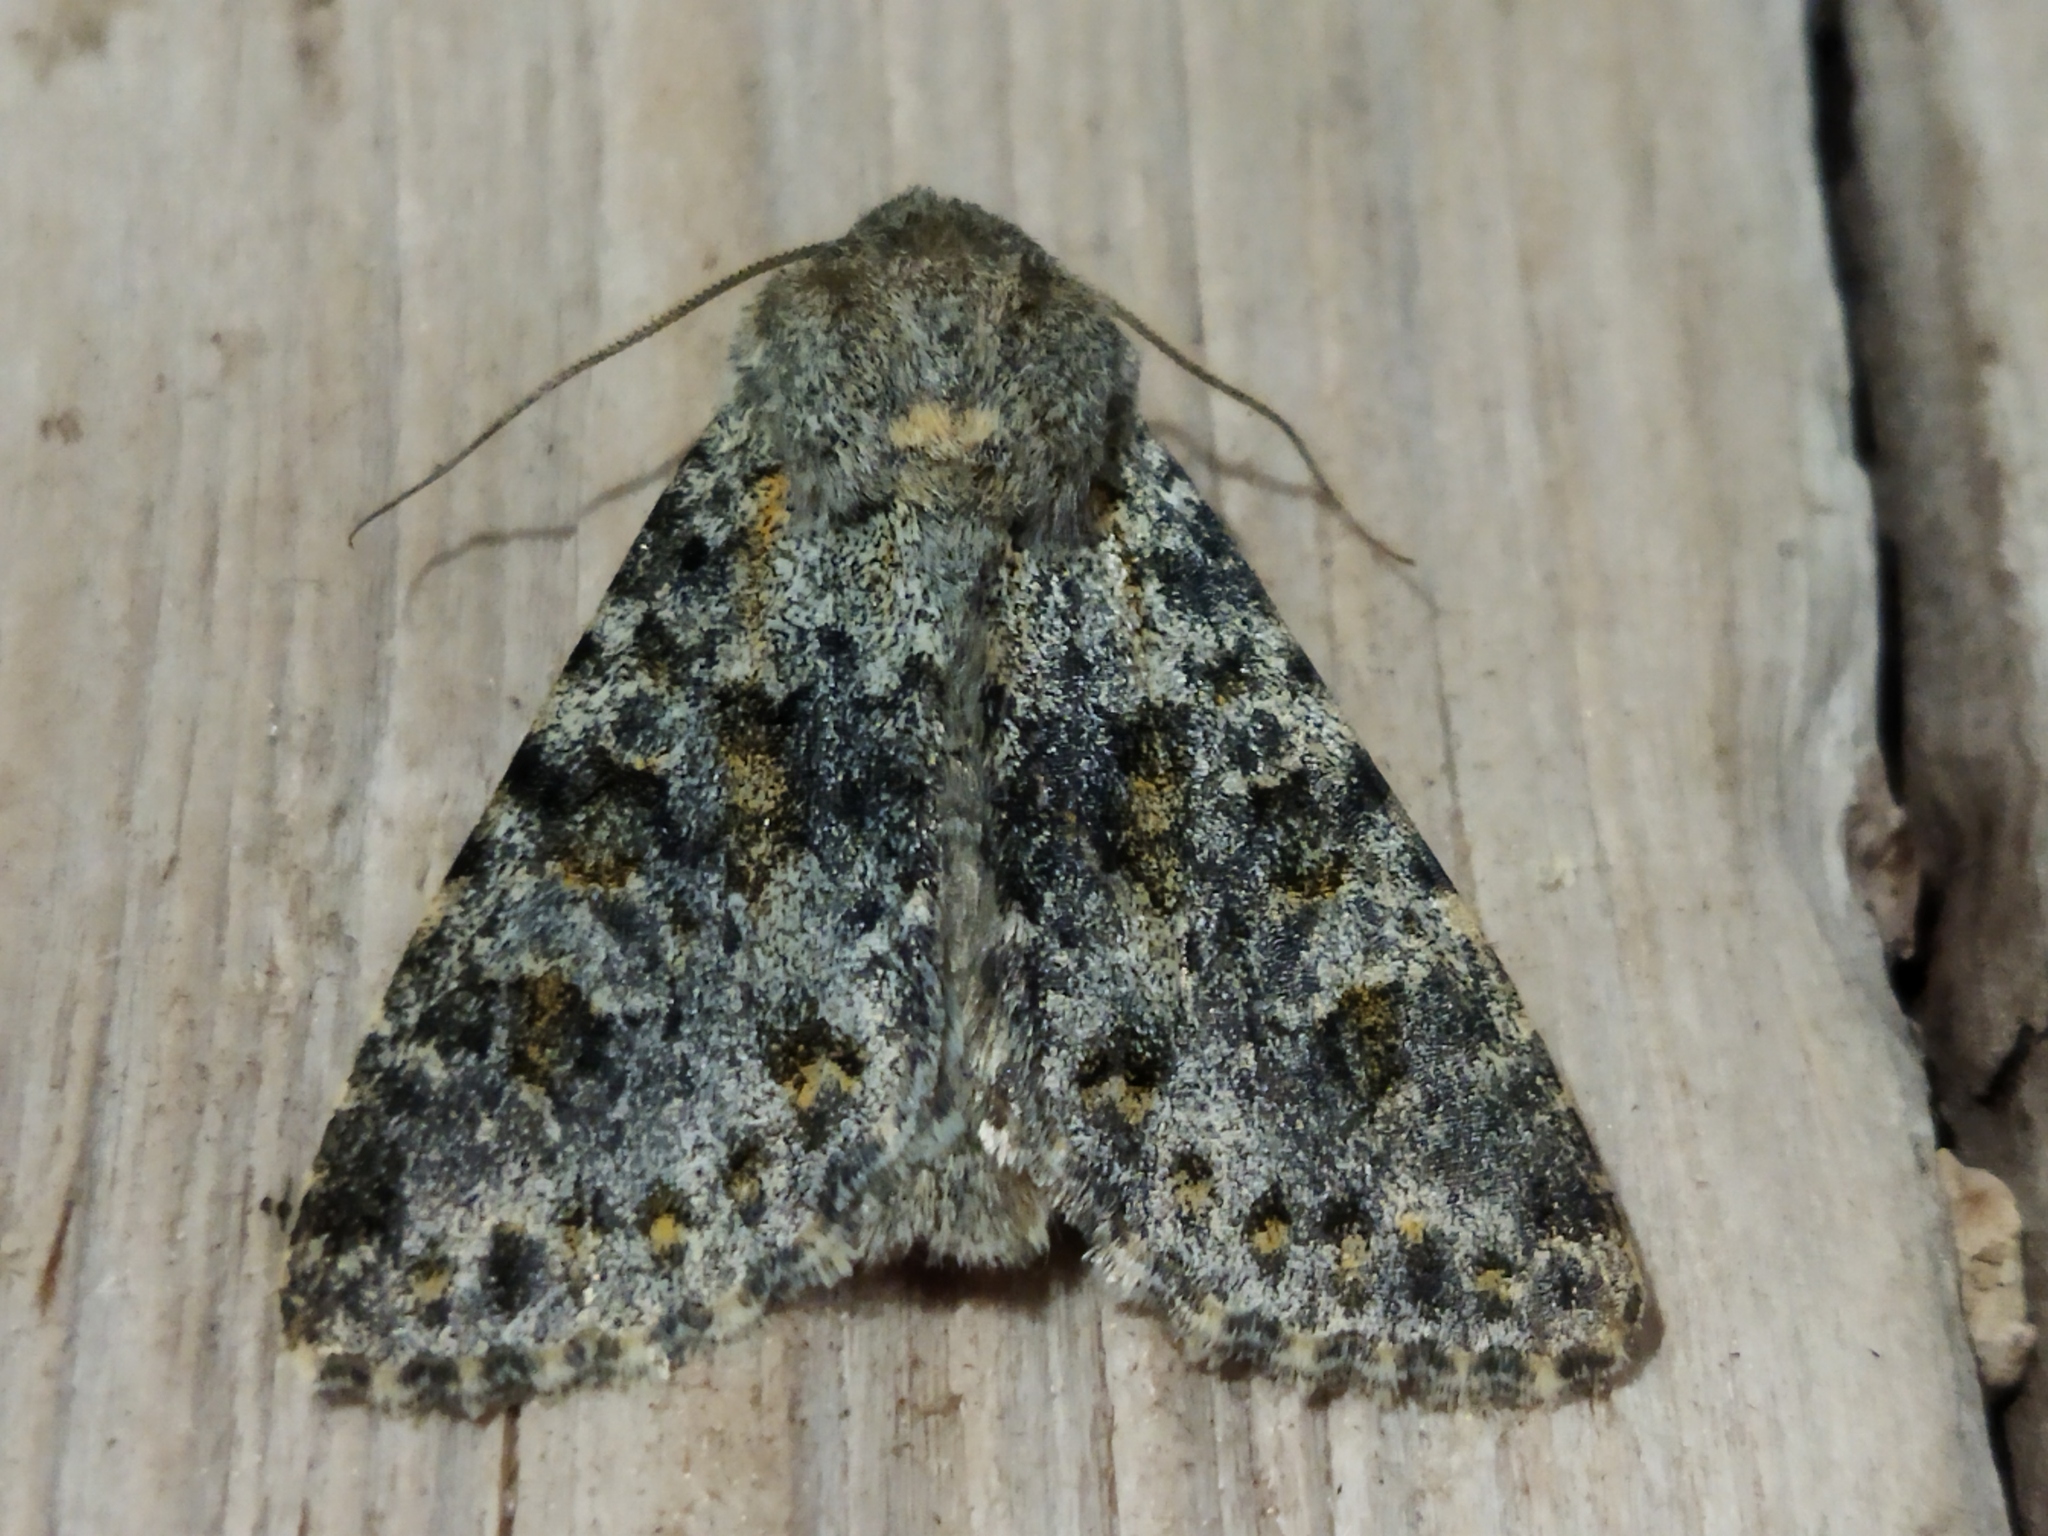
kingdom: Animalia
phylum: Arthropoda
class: Insecta
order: Lepidoptera
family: Noctuidae
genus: Polymixis
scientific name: Polymixis rufocincta
